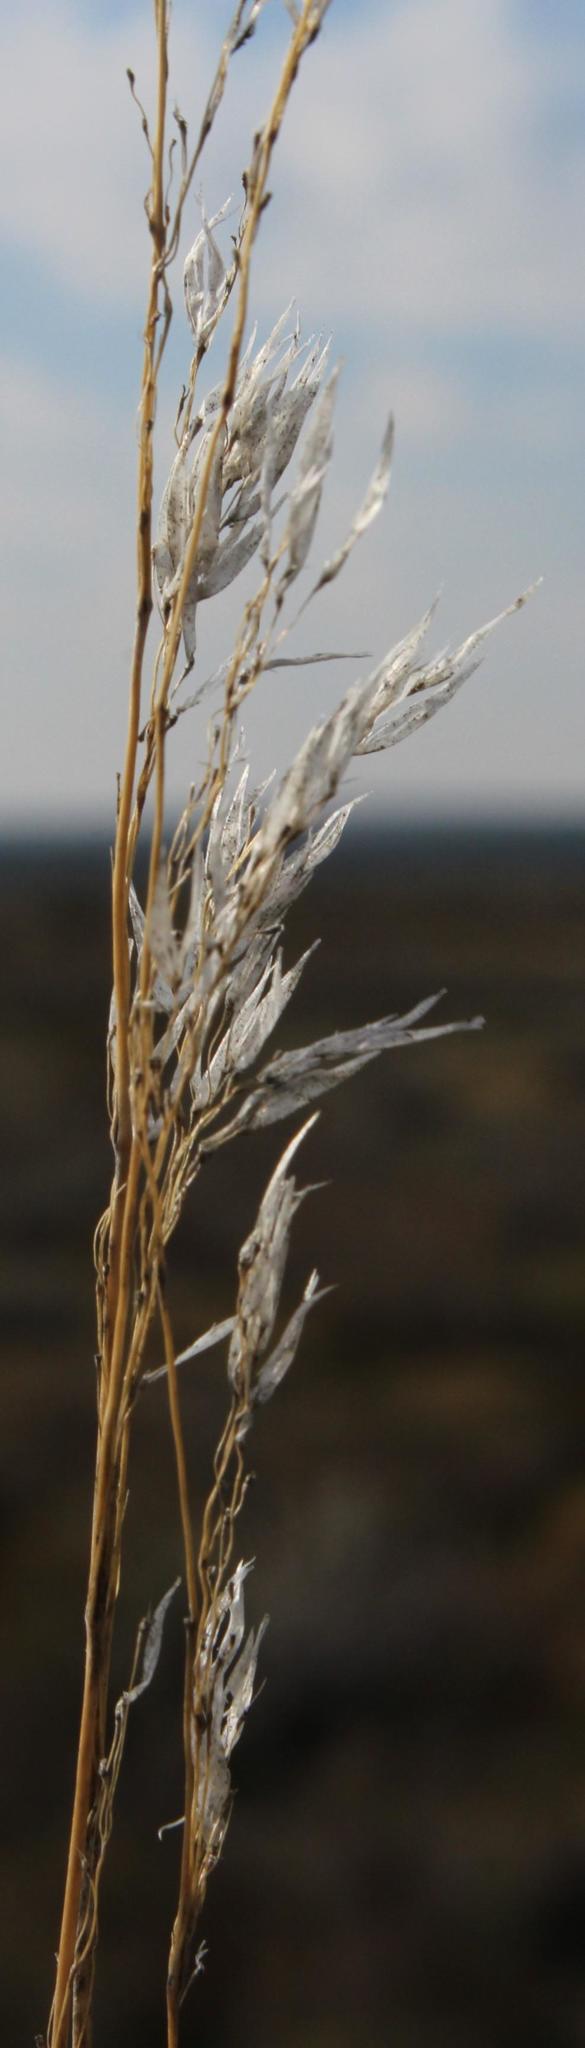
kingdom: Plantae
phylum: Tracheophyta
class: Liliopsida
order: Poales
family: Poaceae
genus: Pentameris
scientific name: Pentameris horrida
